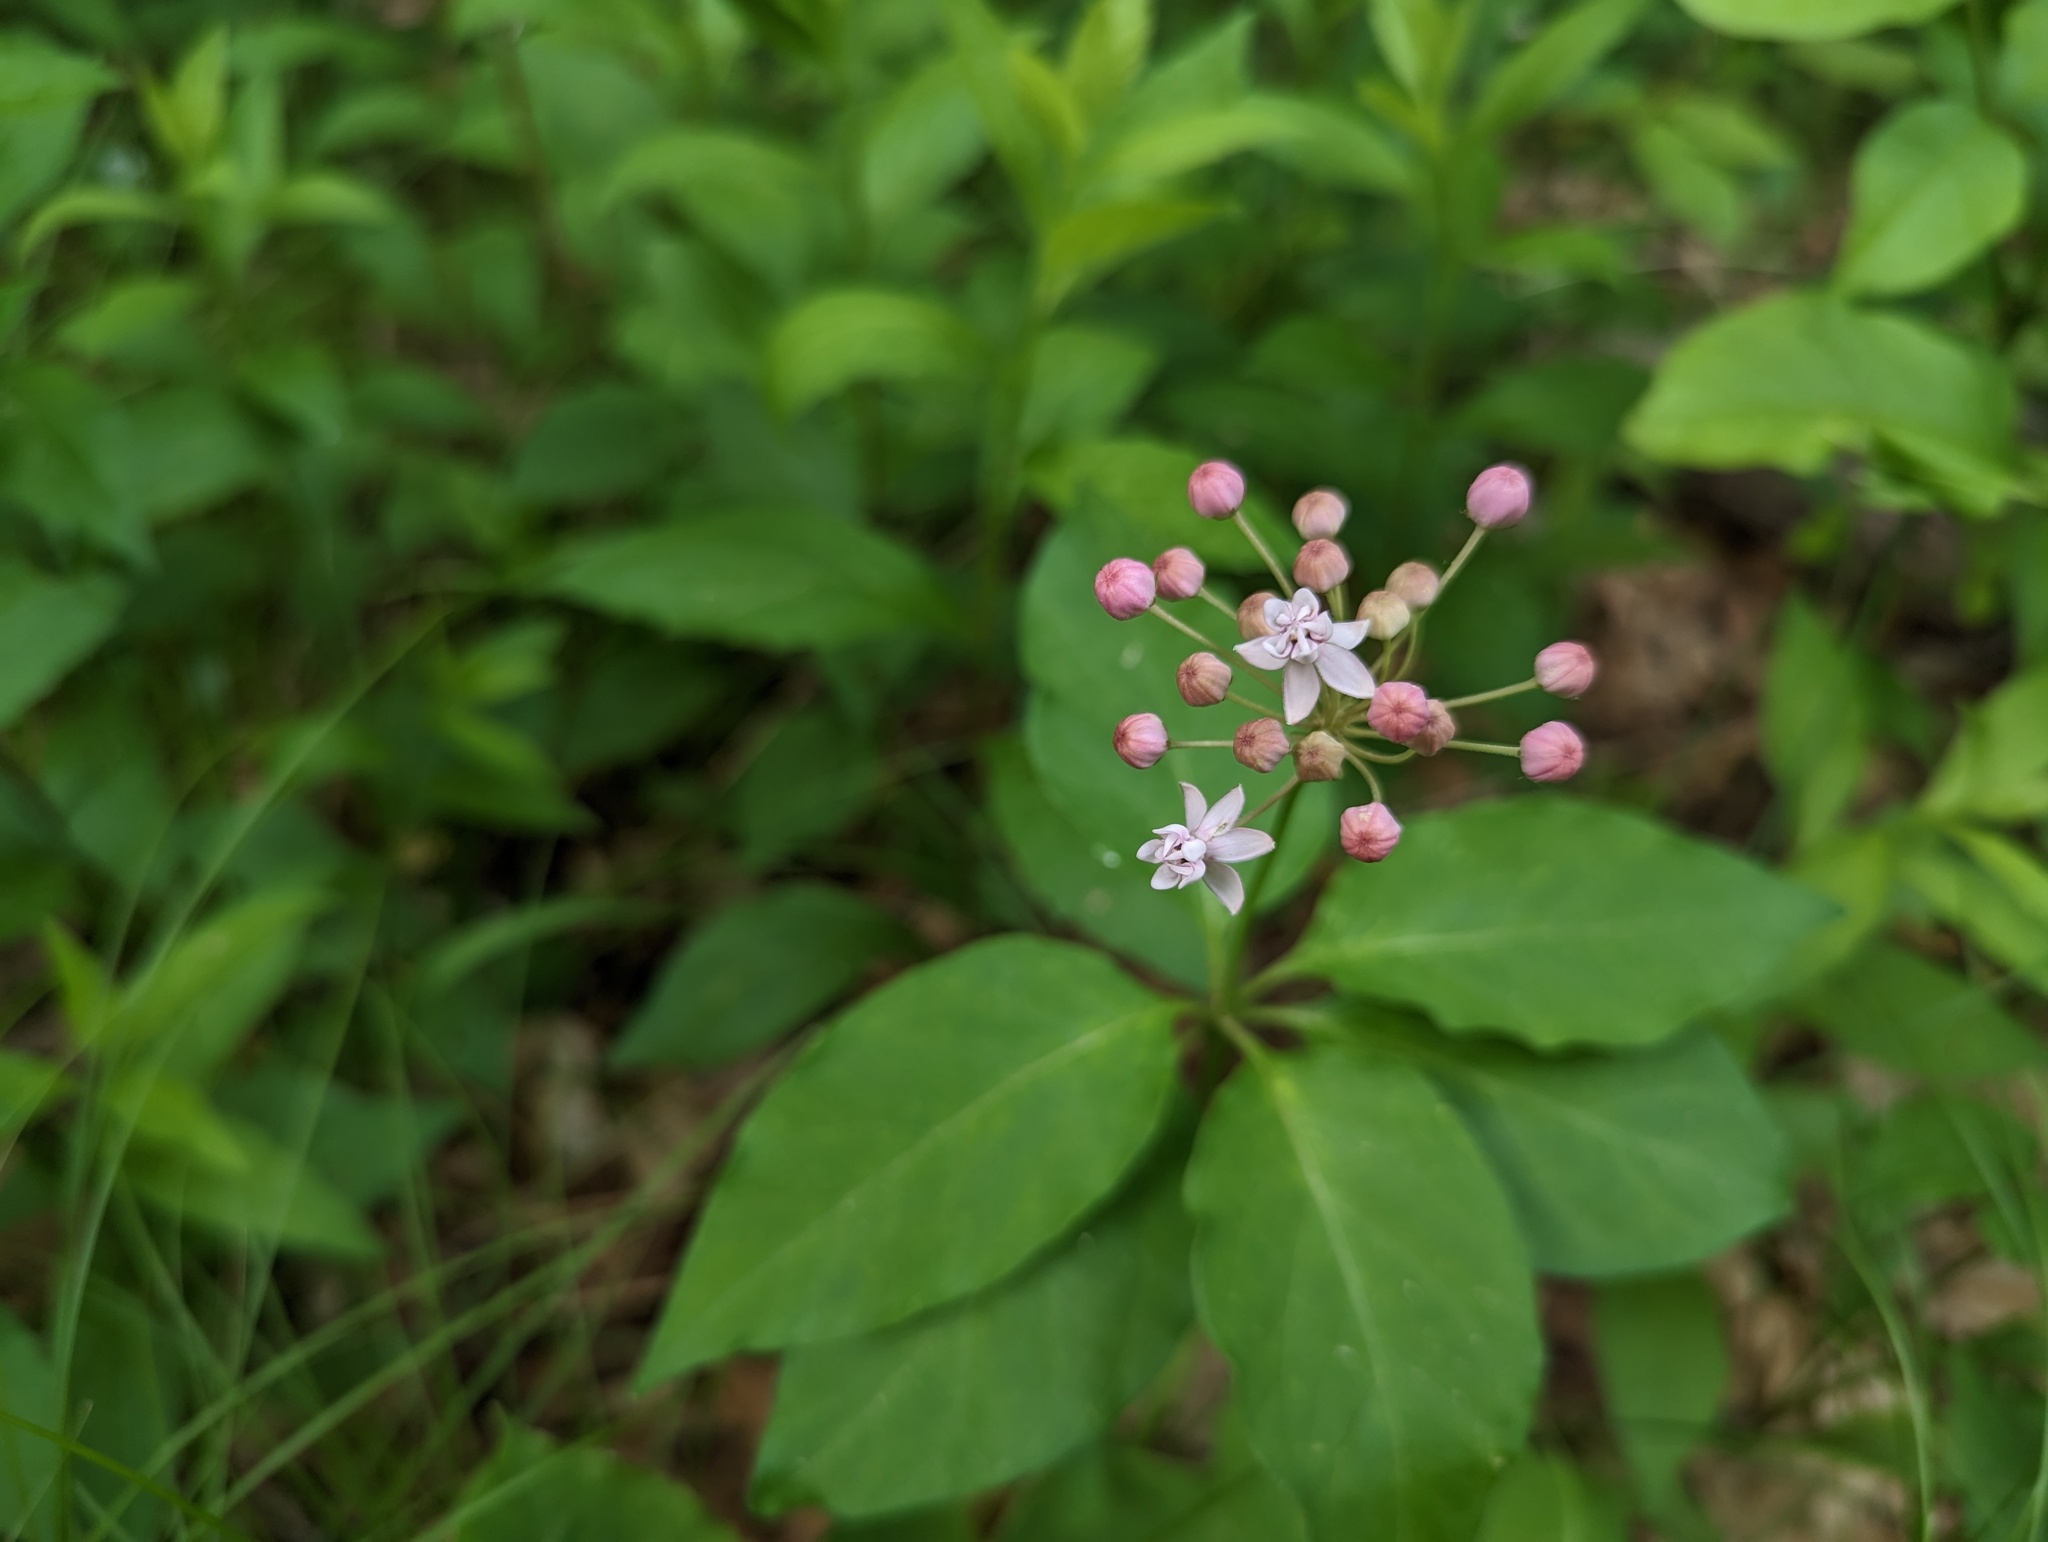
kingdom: Plantae
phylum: Tracheophyta
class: Magnoliopsida
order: Gentianales
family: Apocynaceae
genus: Asclepias
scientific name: Asclepias quadrifolia
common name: Whorled milkweed
